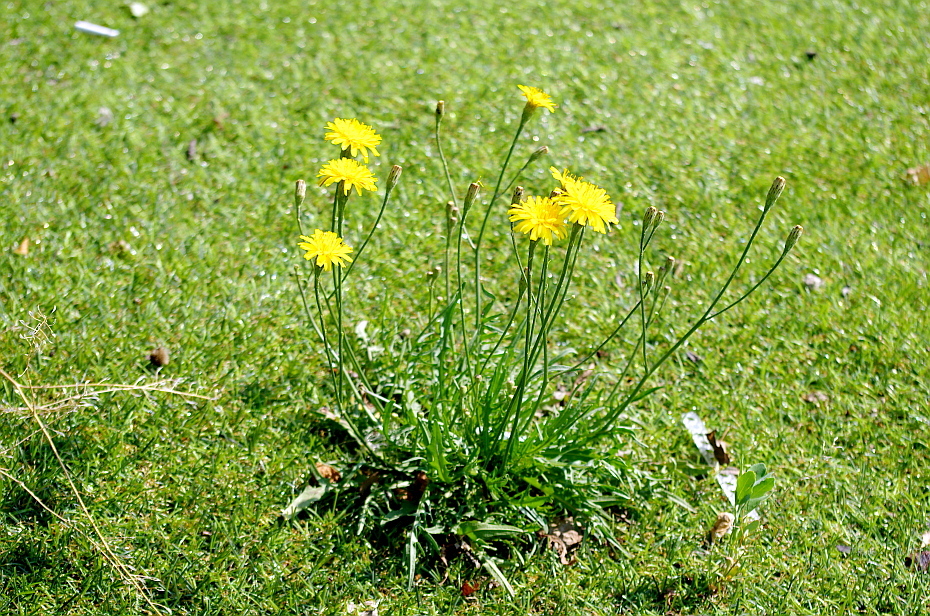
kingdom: Plantae
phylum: Tracheophyta
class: Magnoliopsida
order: Asterales
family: Asteraceae
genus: Scorzoneroides
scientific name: Scorzoneroides autumnalis
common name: Autumn hawkbit
